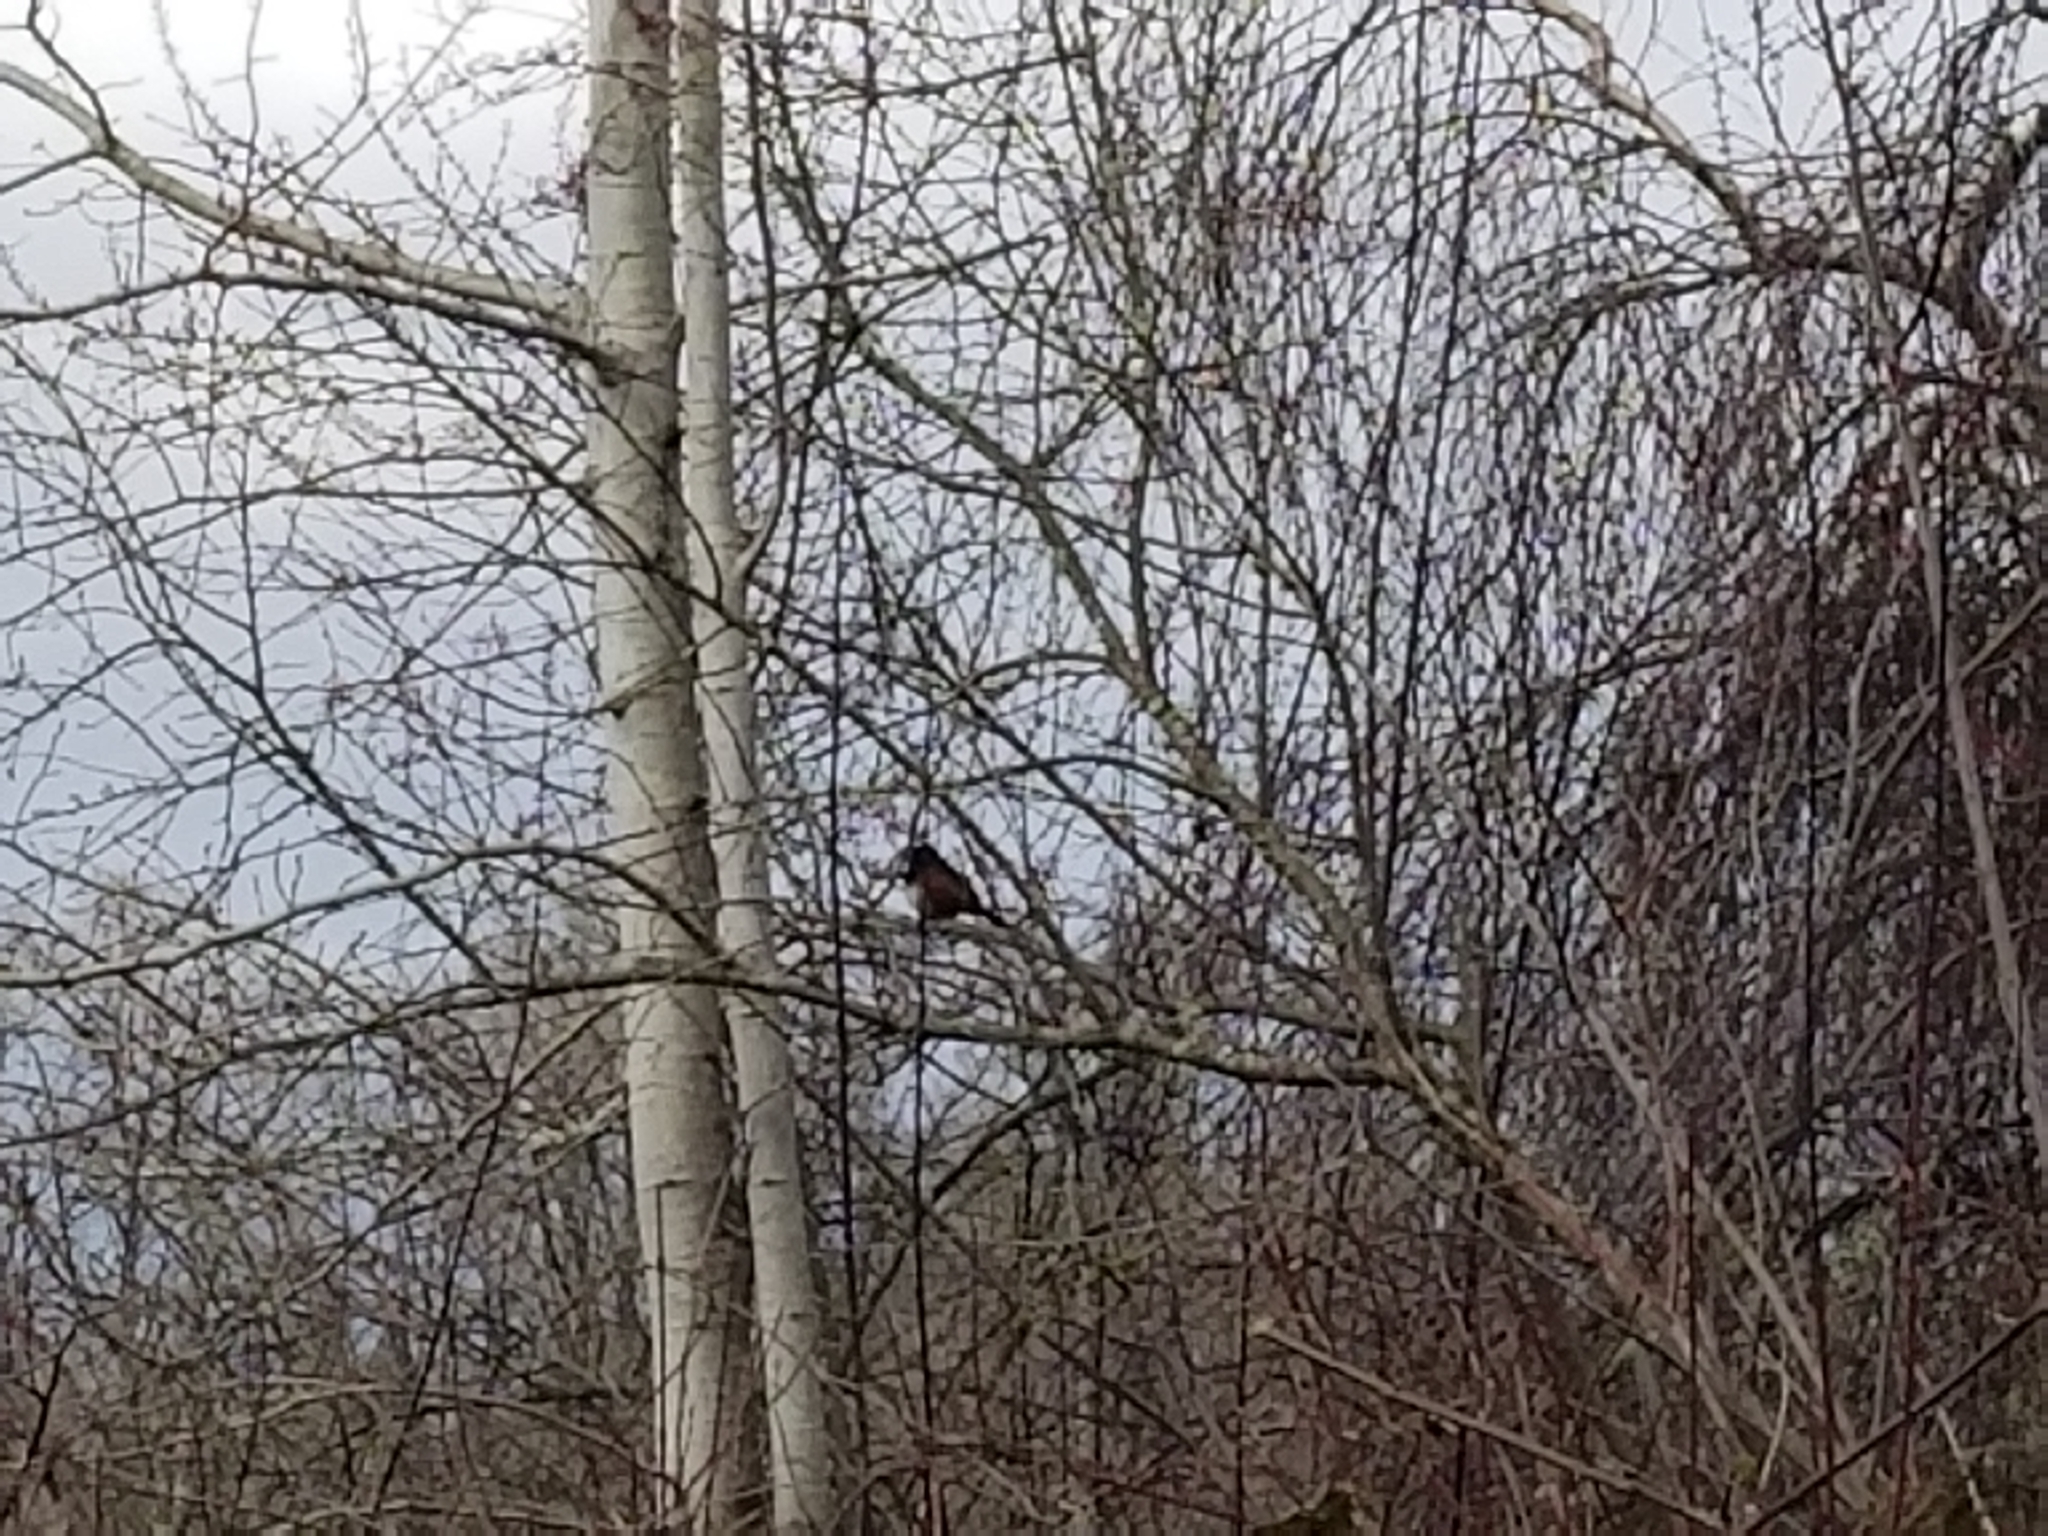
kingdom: Animalia
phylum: Chordata
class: Aves
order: Passeriformes
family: Passerellidae
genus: Pipilo
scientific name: Pipilo maculatus
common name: Spotted towhee
